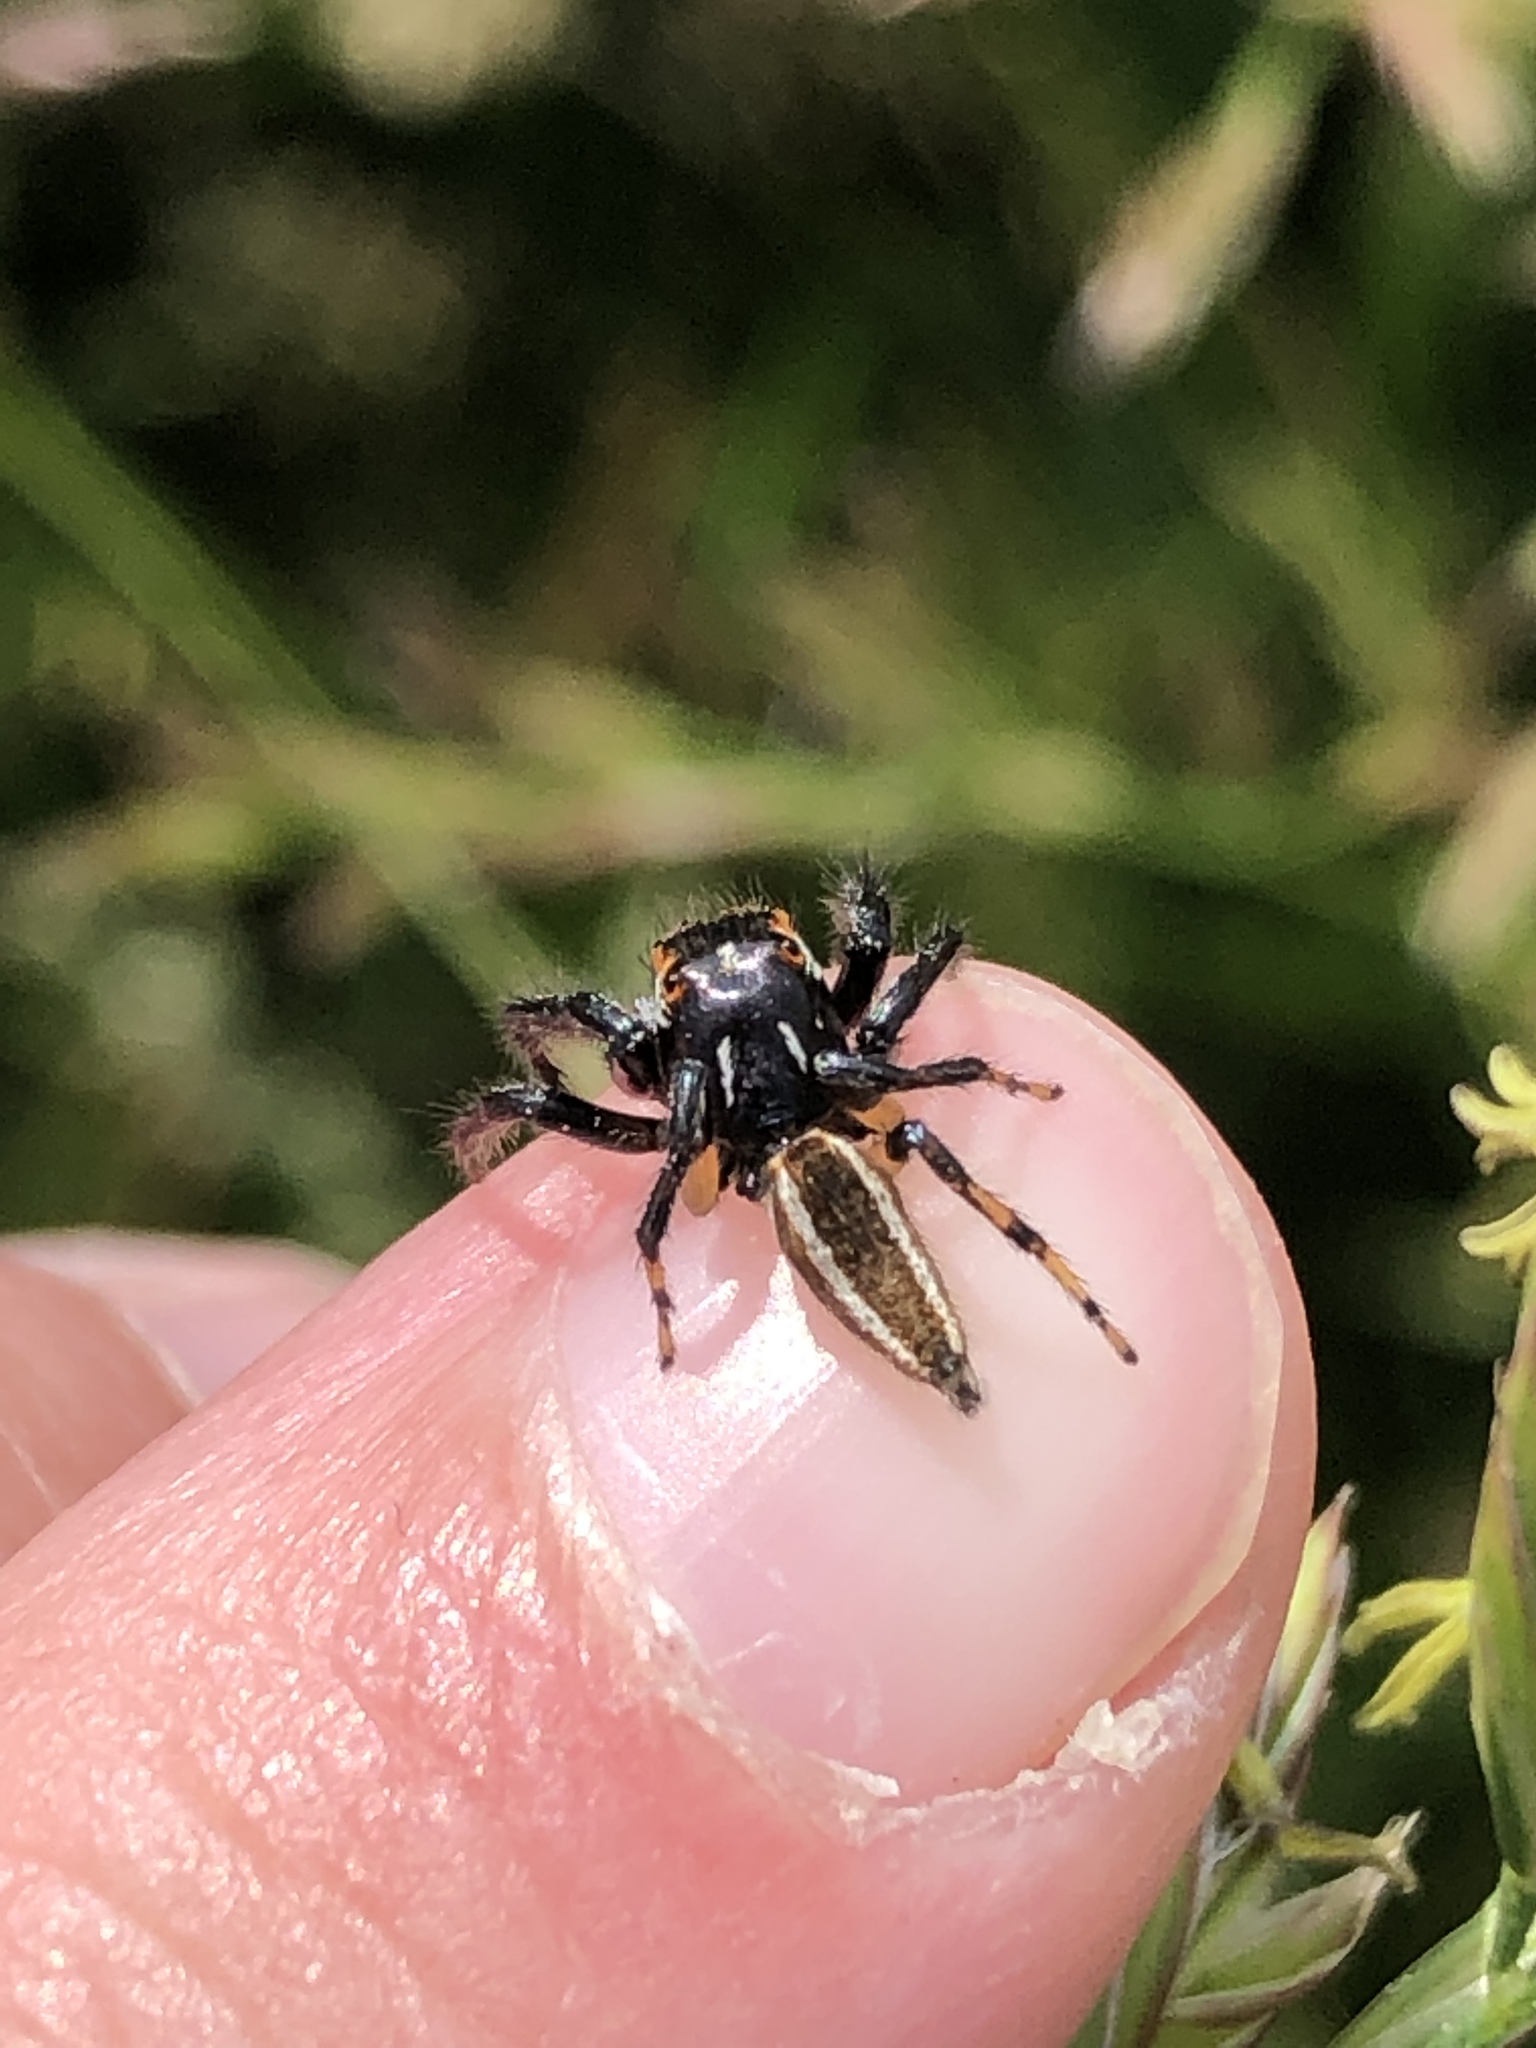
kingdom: Animalia
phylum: Arthropoda
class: Arachnida
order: Araneae
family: Salticidae
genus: Colonus
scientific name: Colonus sylvanus
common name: Jumping spiders
